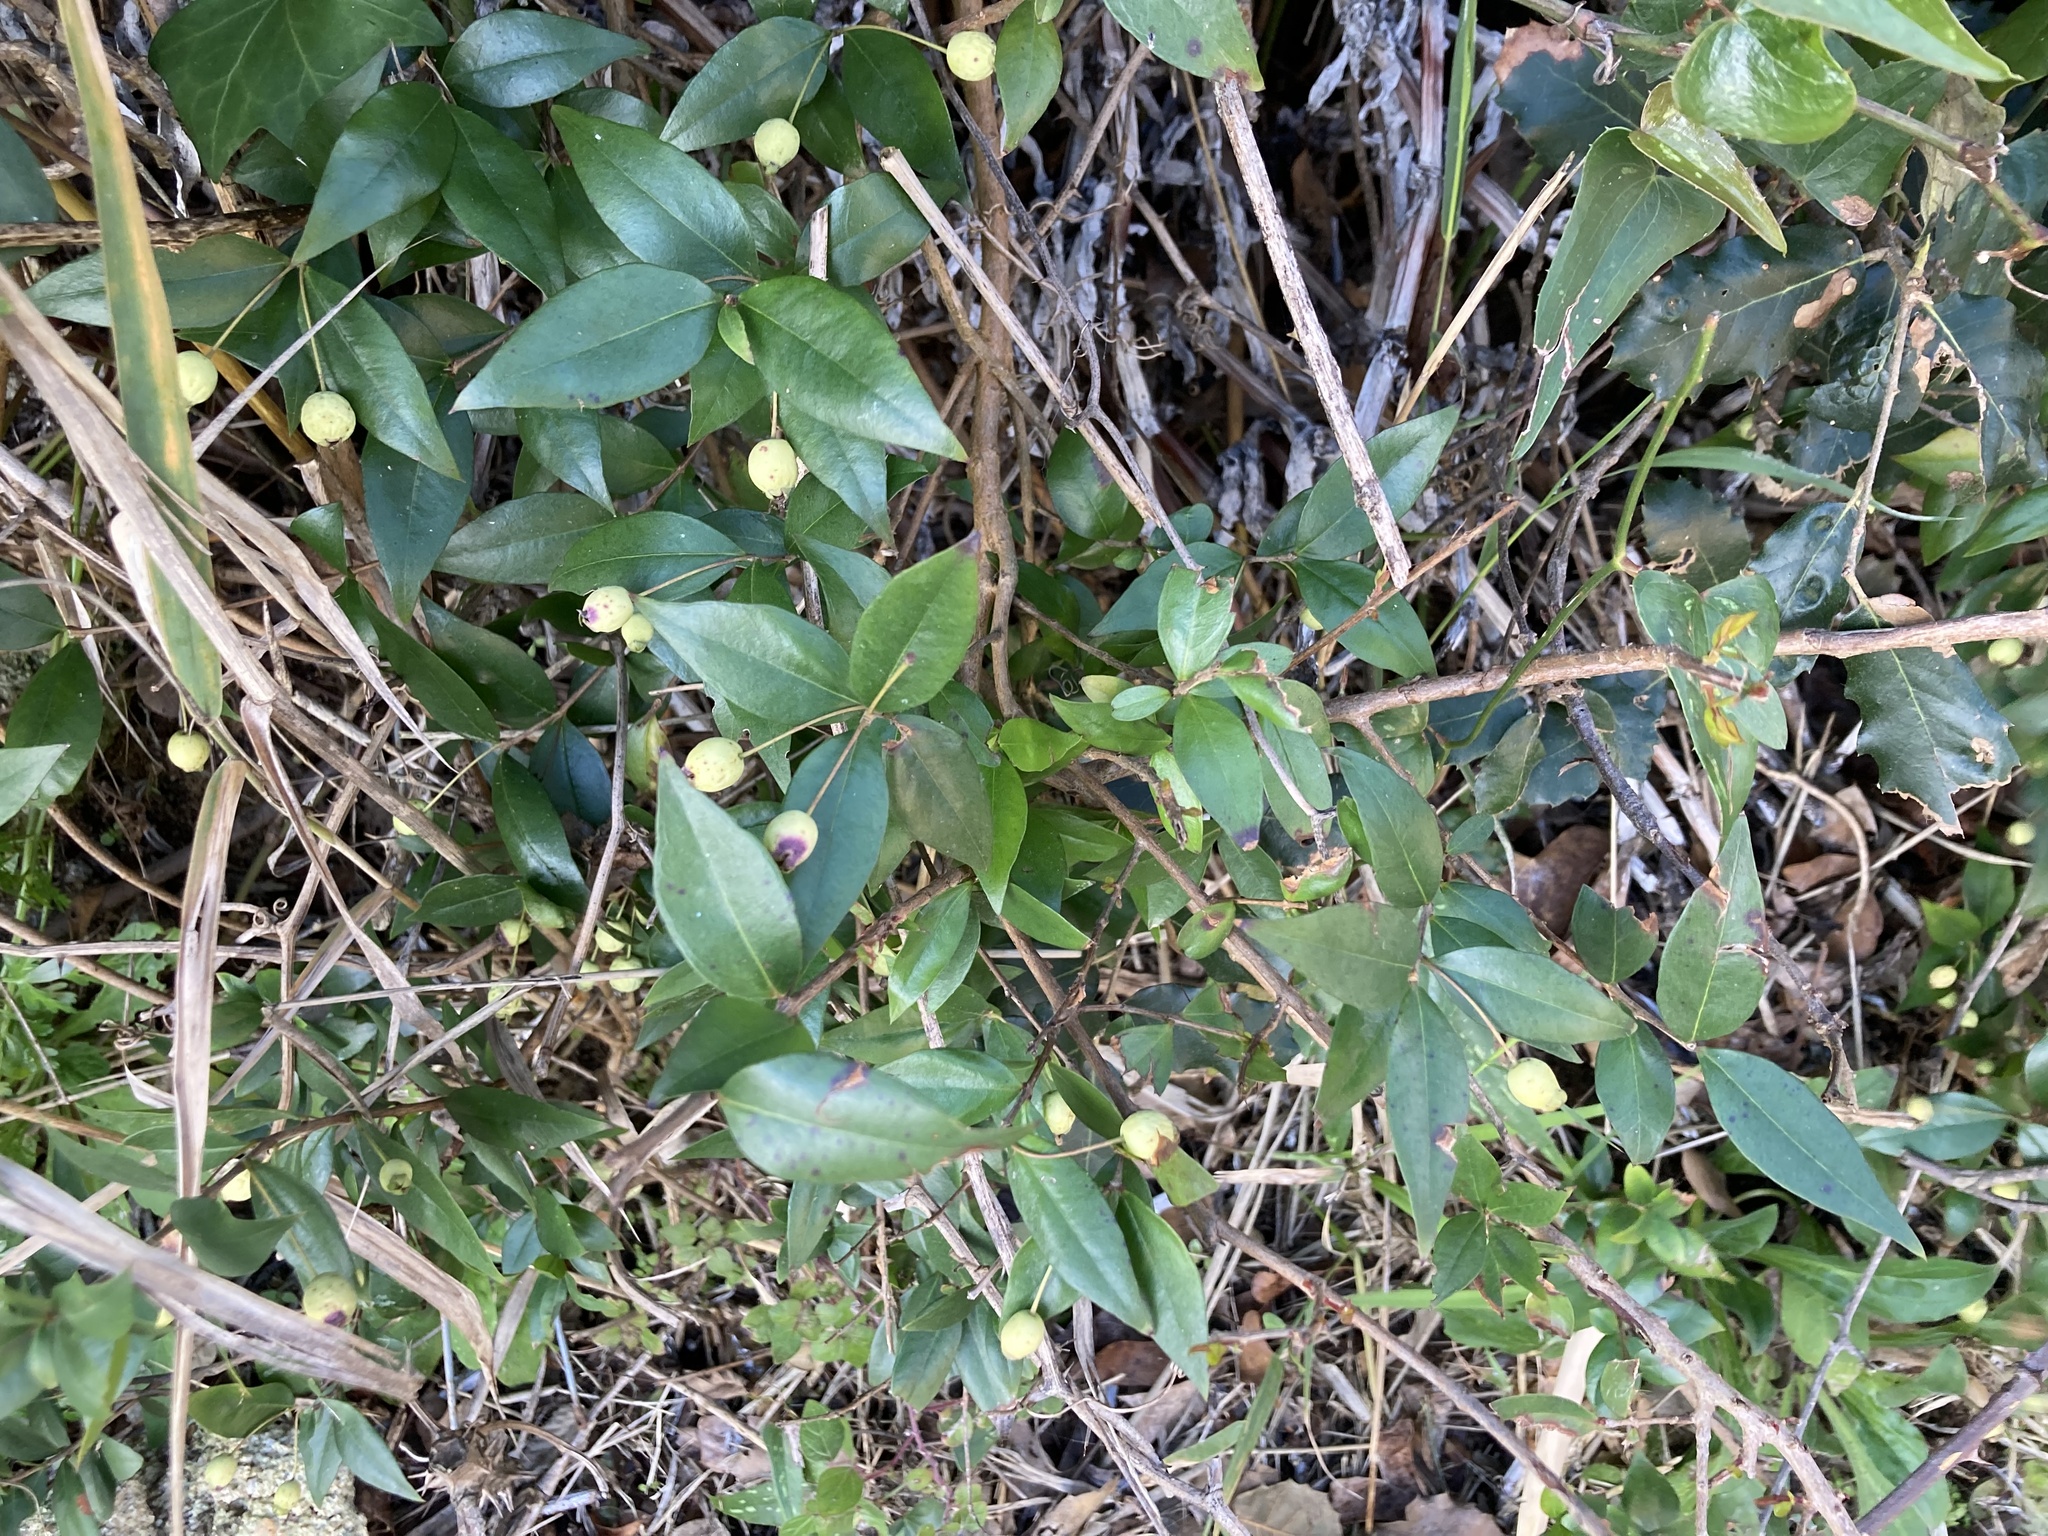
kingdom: Plantae
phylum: Tracheophyta
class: Magnoliopsida
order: Myrtales
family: Myrtaceae
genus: Myrtus
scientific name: Myrtus communis
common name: Myrtle
